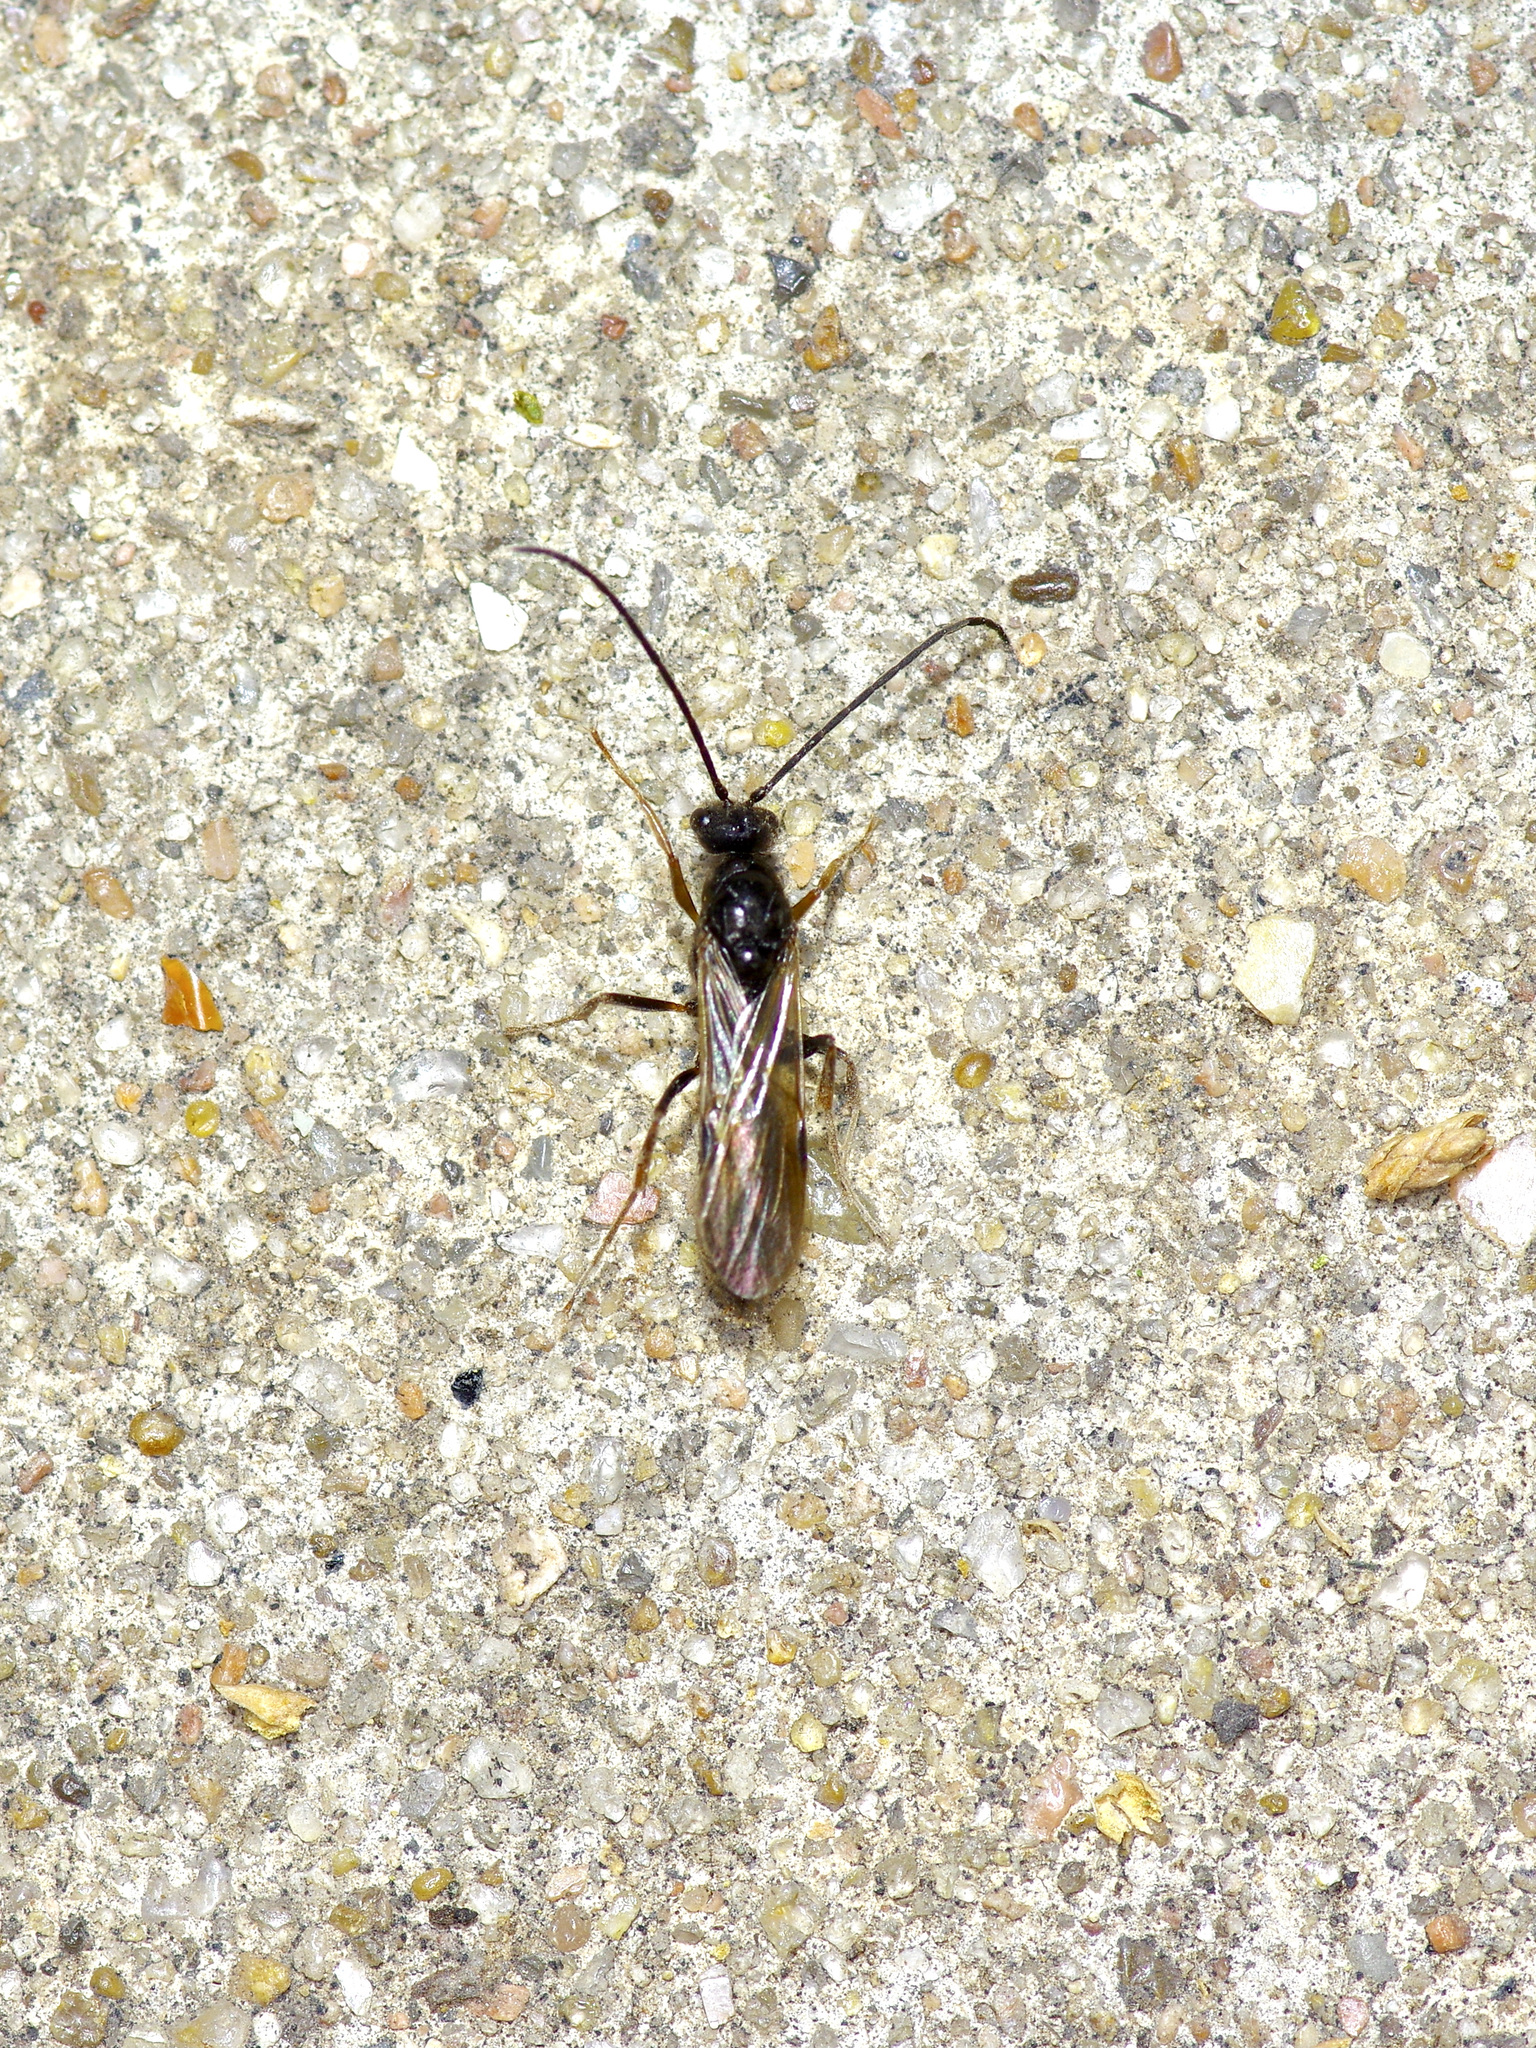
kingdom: Animalia
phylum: Arthropoda
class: Insecta
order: Hymenoptera
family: Formicidae
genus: Pachycondyla
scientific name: Pachycondyla harpax
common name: Ant
